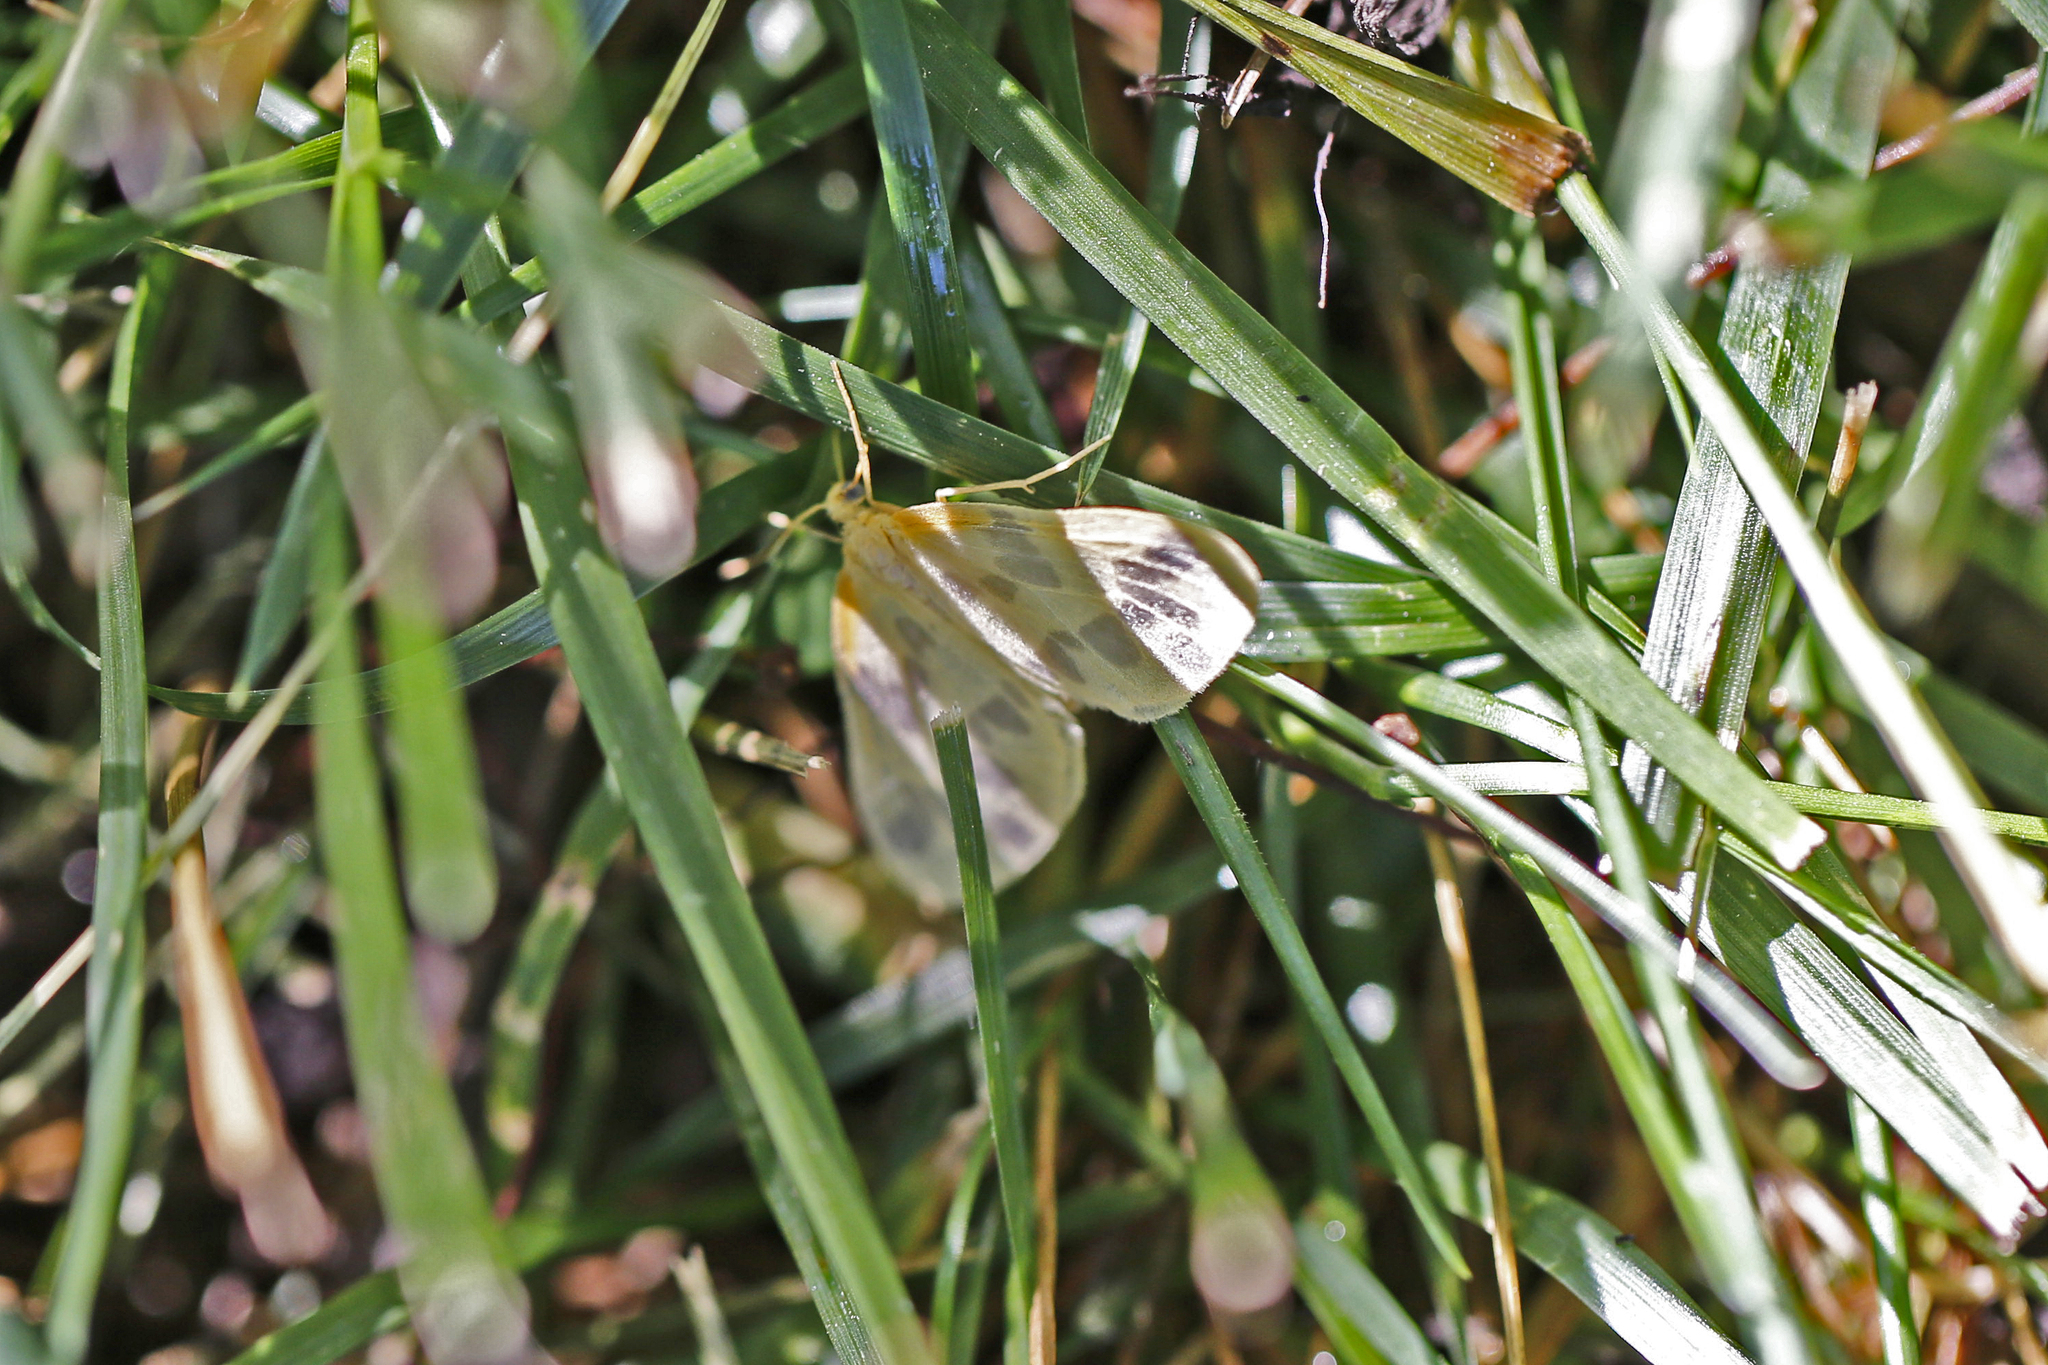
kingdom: Animalia
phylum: Arthropoda
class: Insecta
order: Lepidoptera
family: Geometridae
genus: Eubaphe
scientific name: Eubaphe mendica
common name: Beggar
